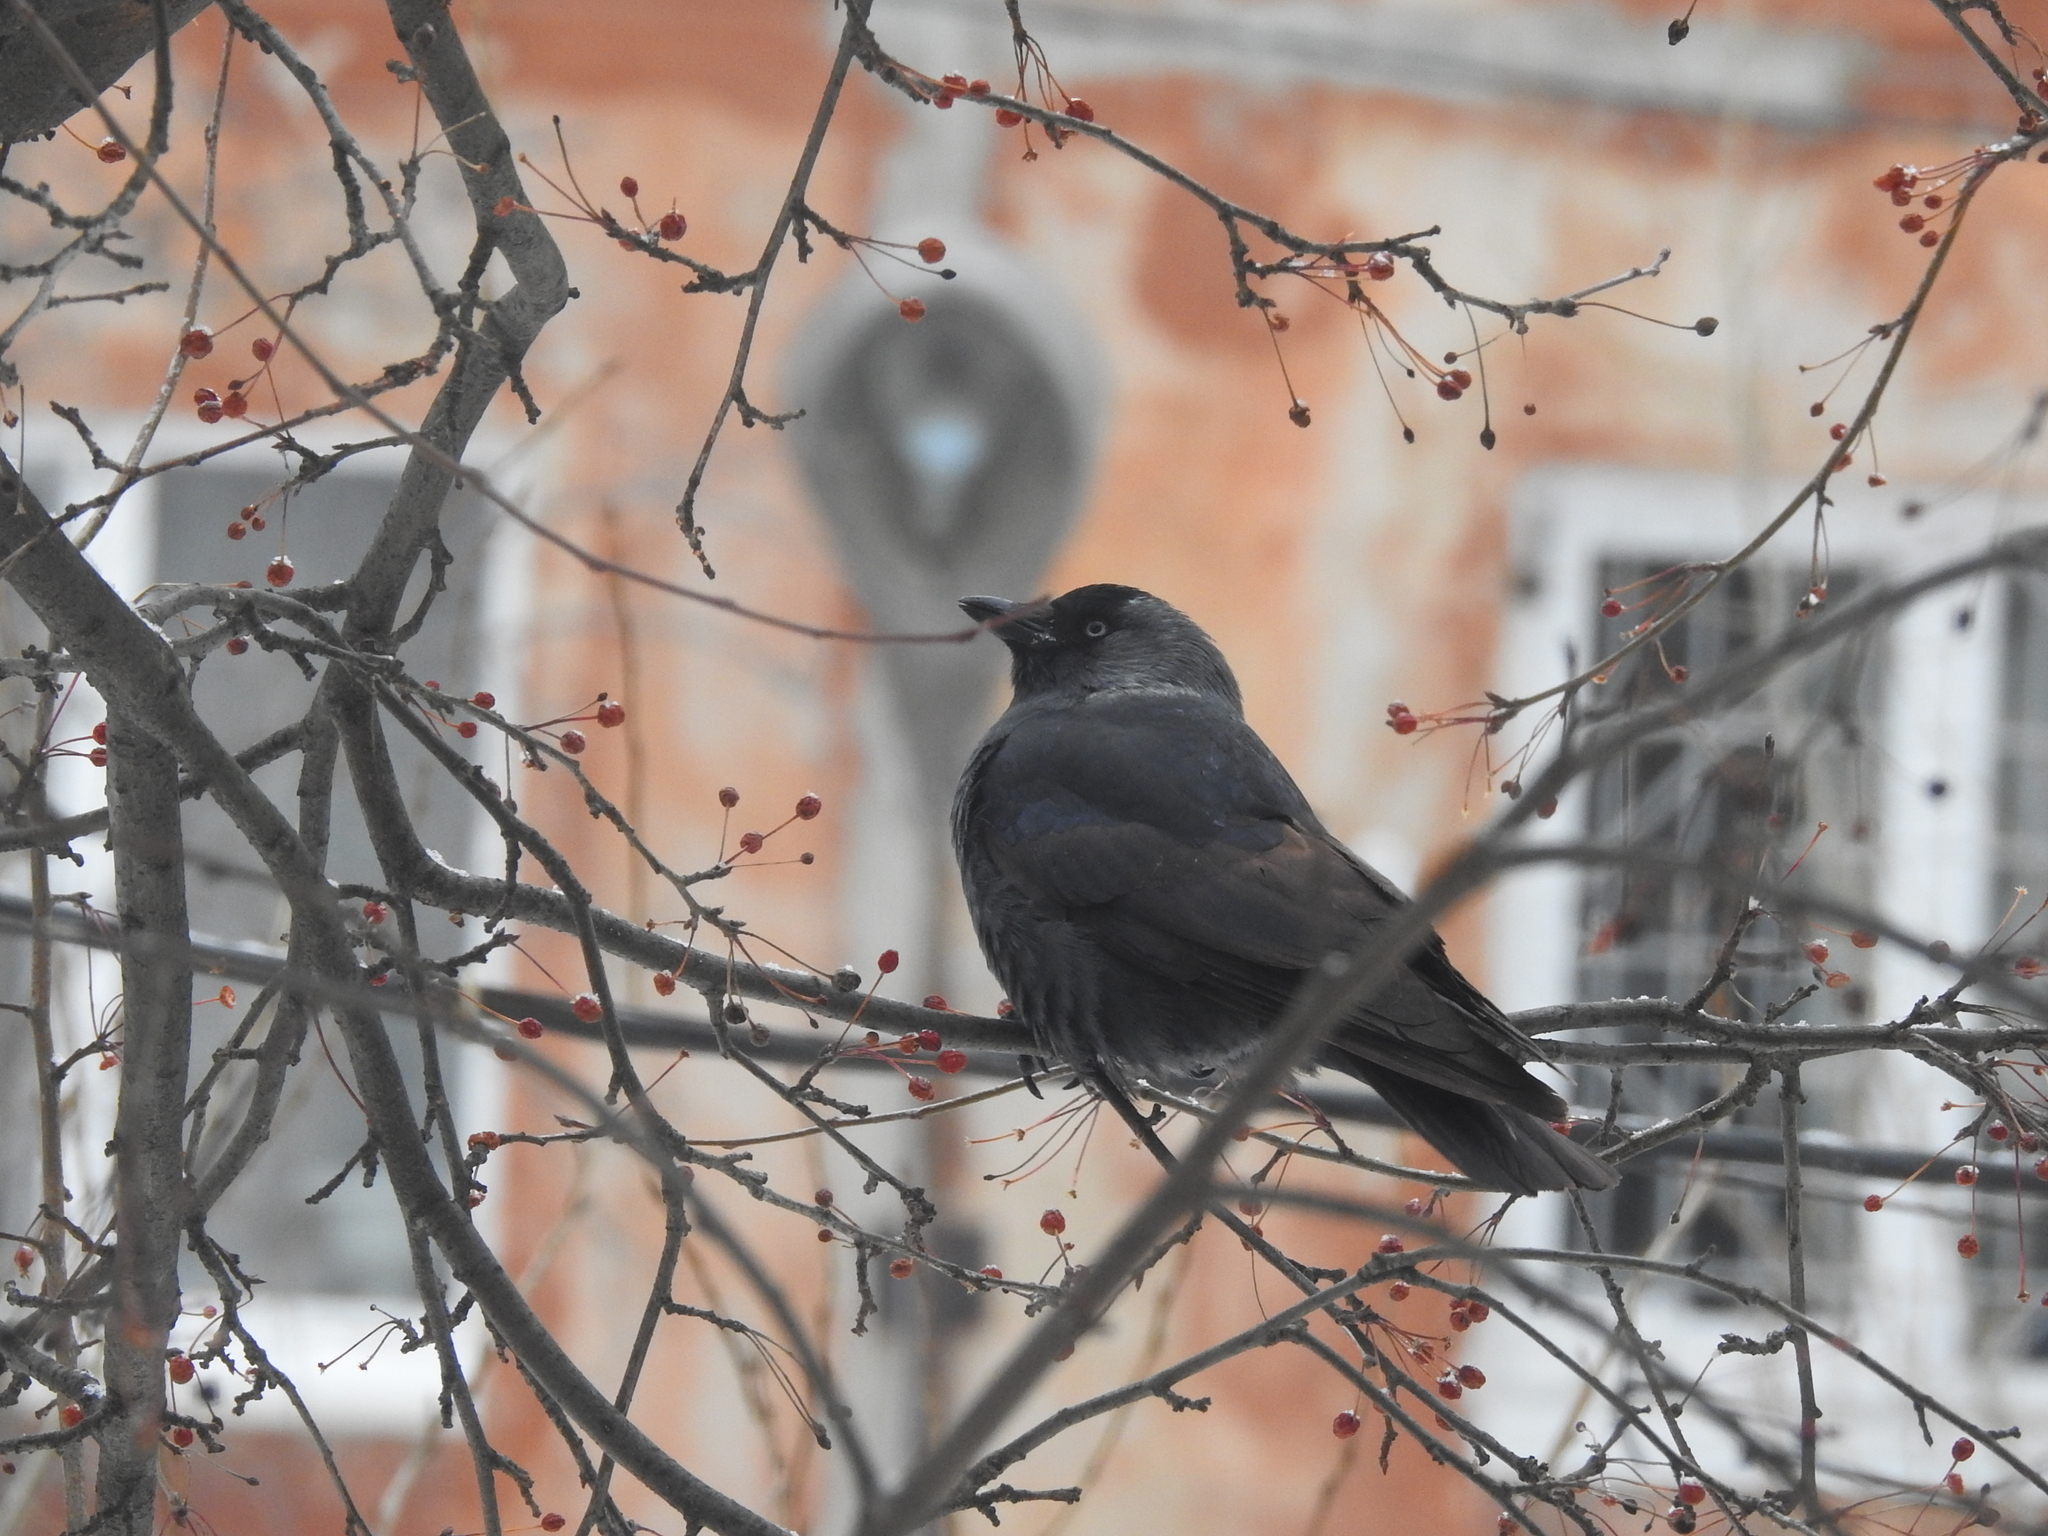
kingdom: Animalia
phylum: Chordata
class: Aves
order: Passeriformes
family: Corvidae
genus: Coloeus
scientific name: Coloeus monedula
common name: Western jackdaw
